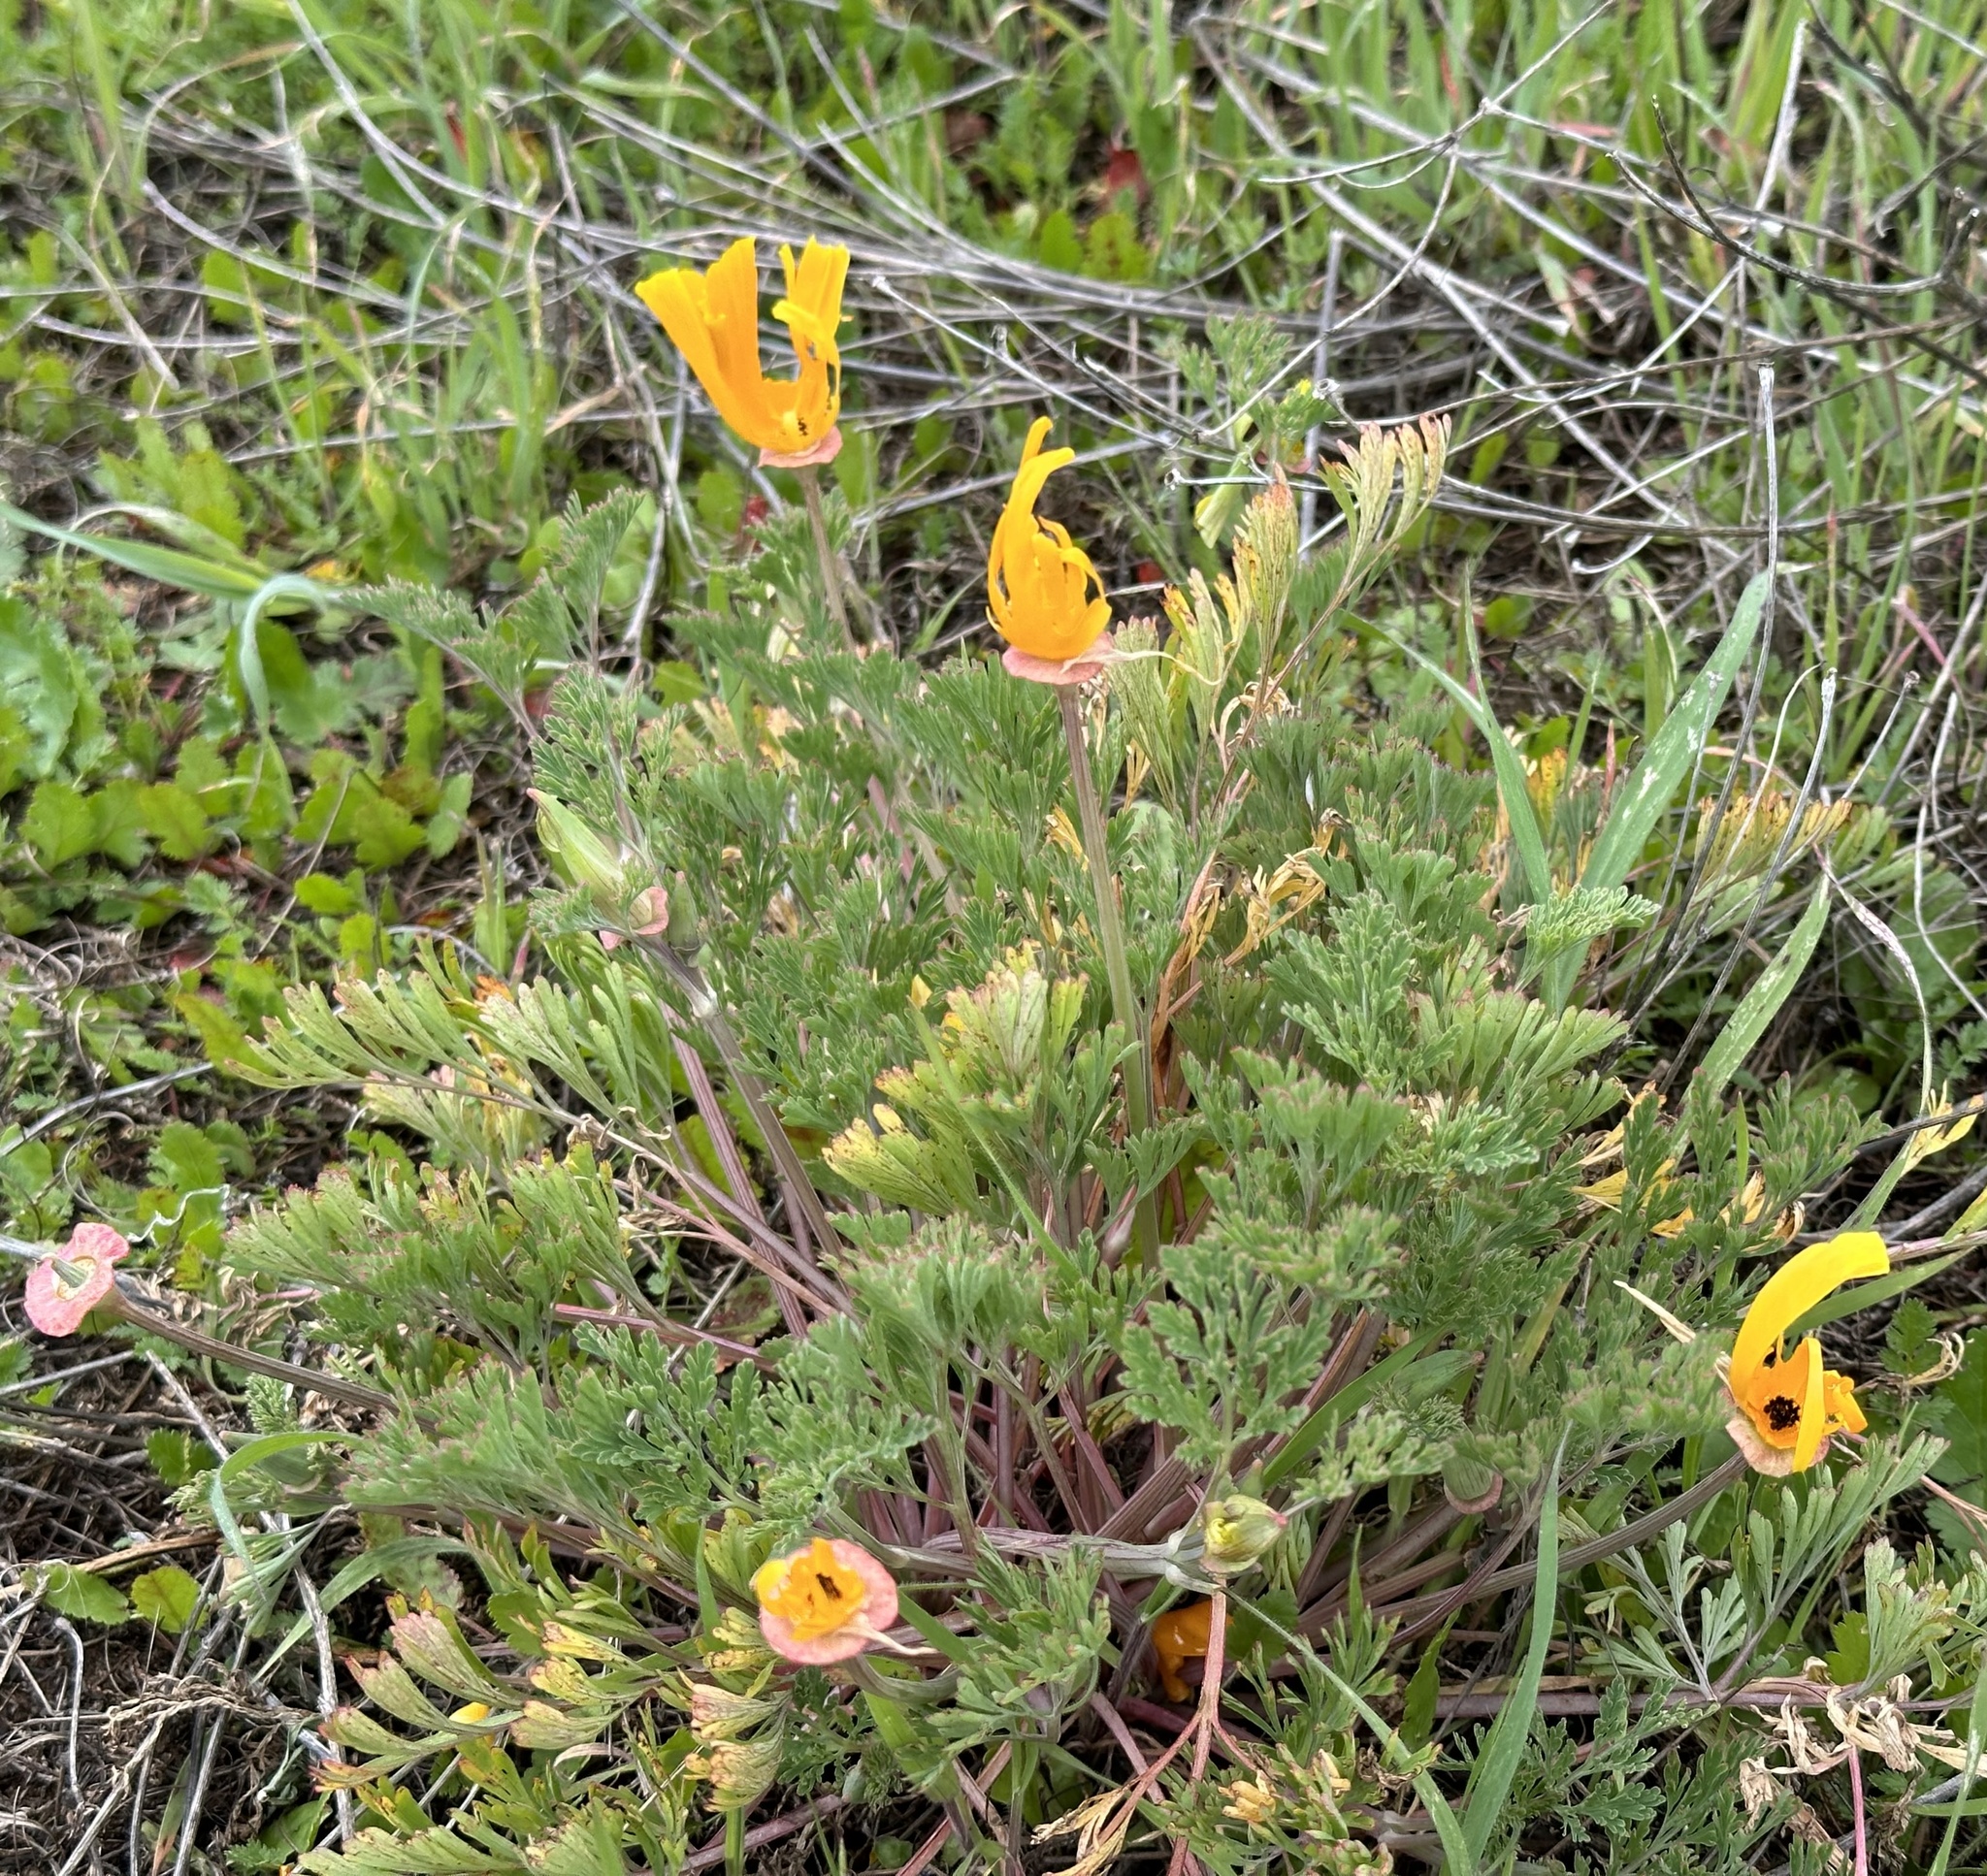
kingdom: Plantae
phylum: Tracheophyta
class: Magnoliopsida
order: Ranunculales
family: Papaveraceae
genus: Eschscholzia
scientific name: Eschscholzia californica
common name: California poppy
